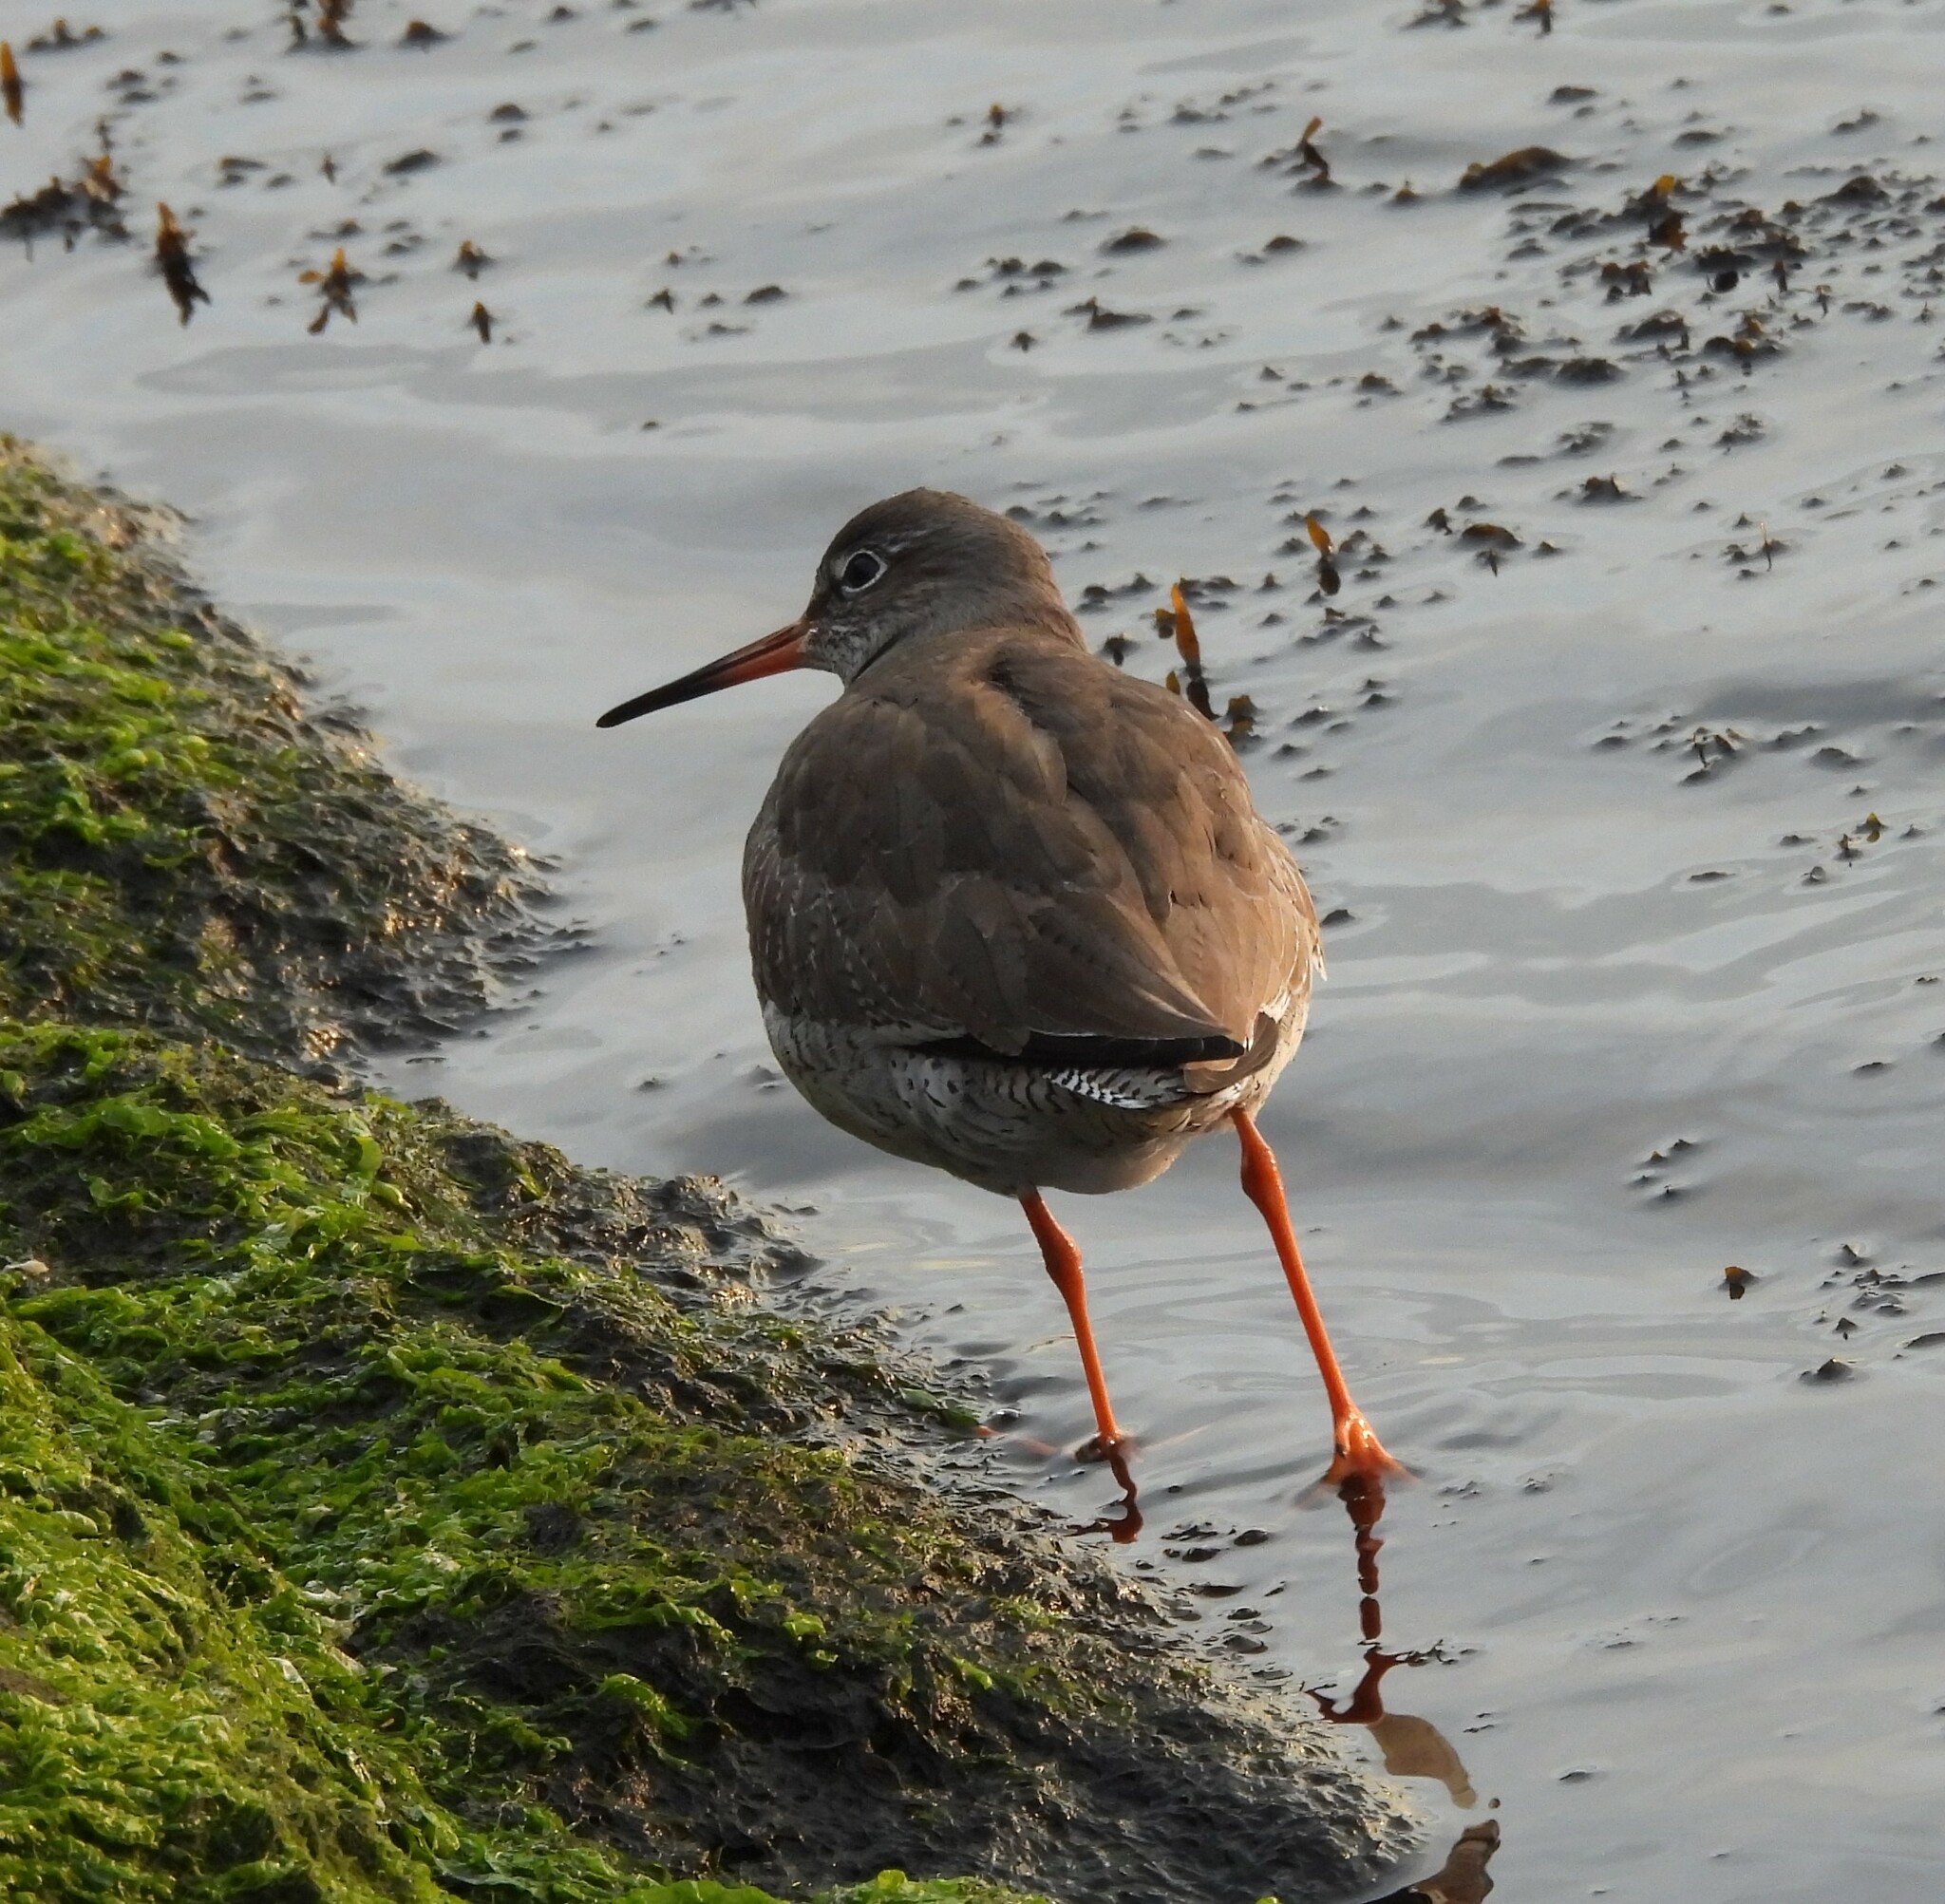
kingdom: Animalia
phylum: Chordata
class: Aves
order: Charadriiformes
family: Scolopacidae
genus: Tringa
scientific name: Tringa totanus
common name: Common redshank
